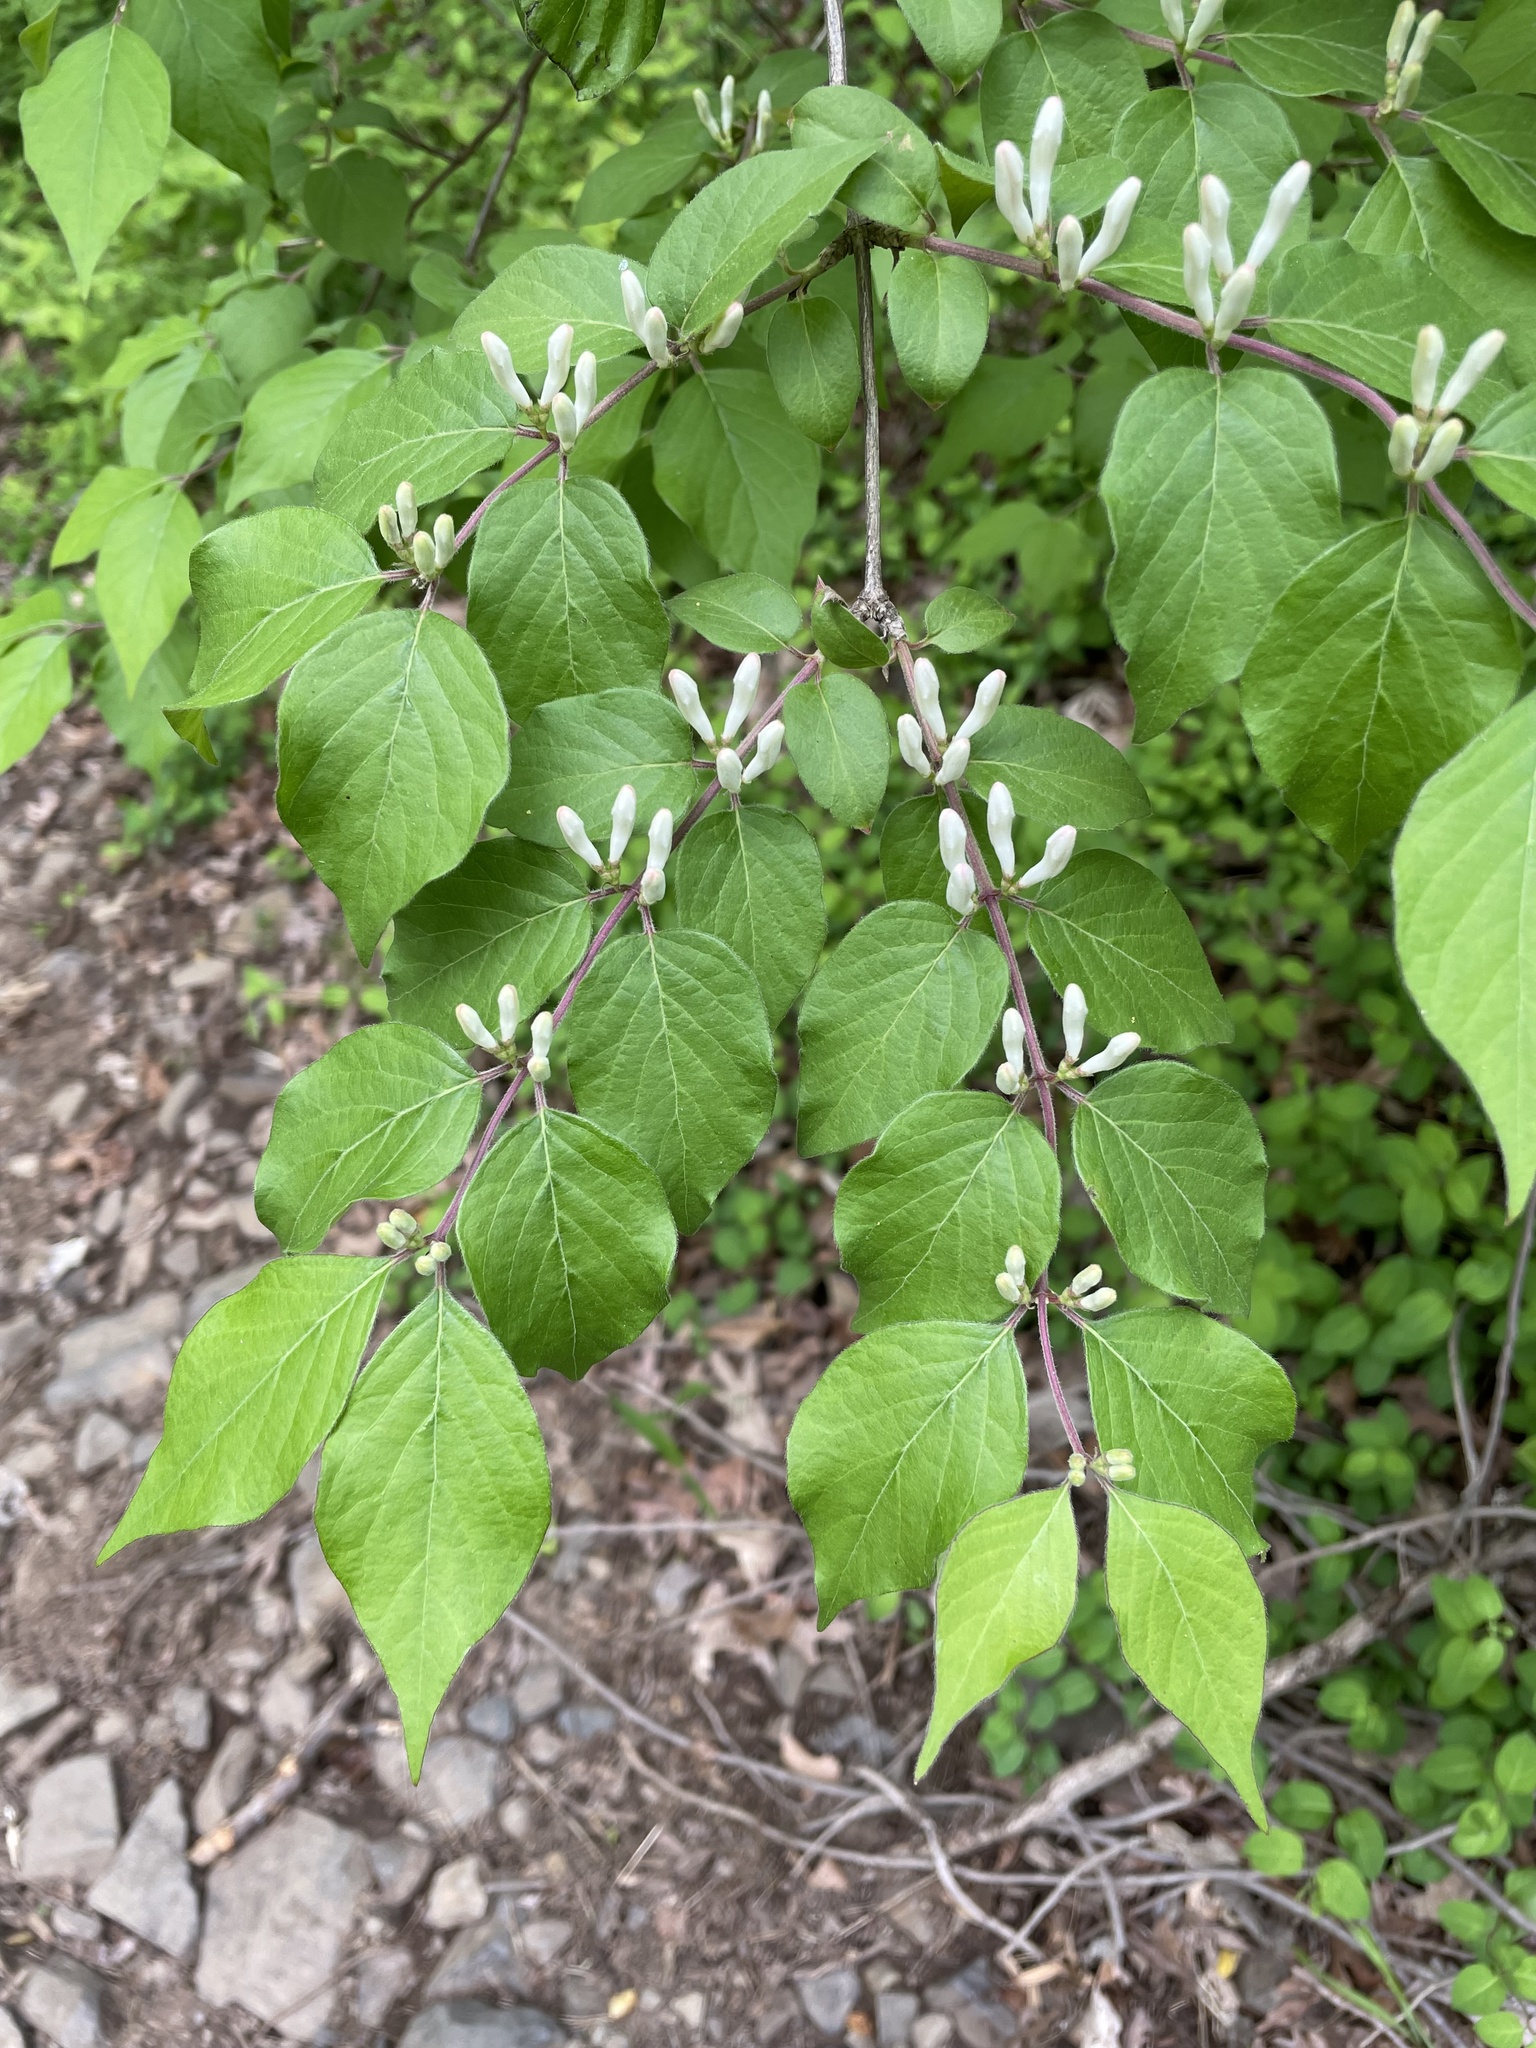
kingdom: Plantae
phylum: Tracheophyta
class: Magnoliopsida
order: Dipsacales
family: Caprifoliaceae
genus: Lonicera
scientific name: Lonicera maackii
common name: Amur honeysuckle
